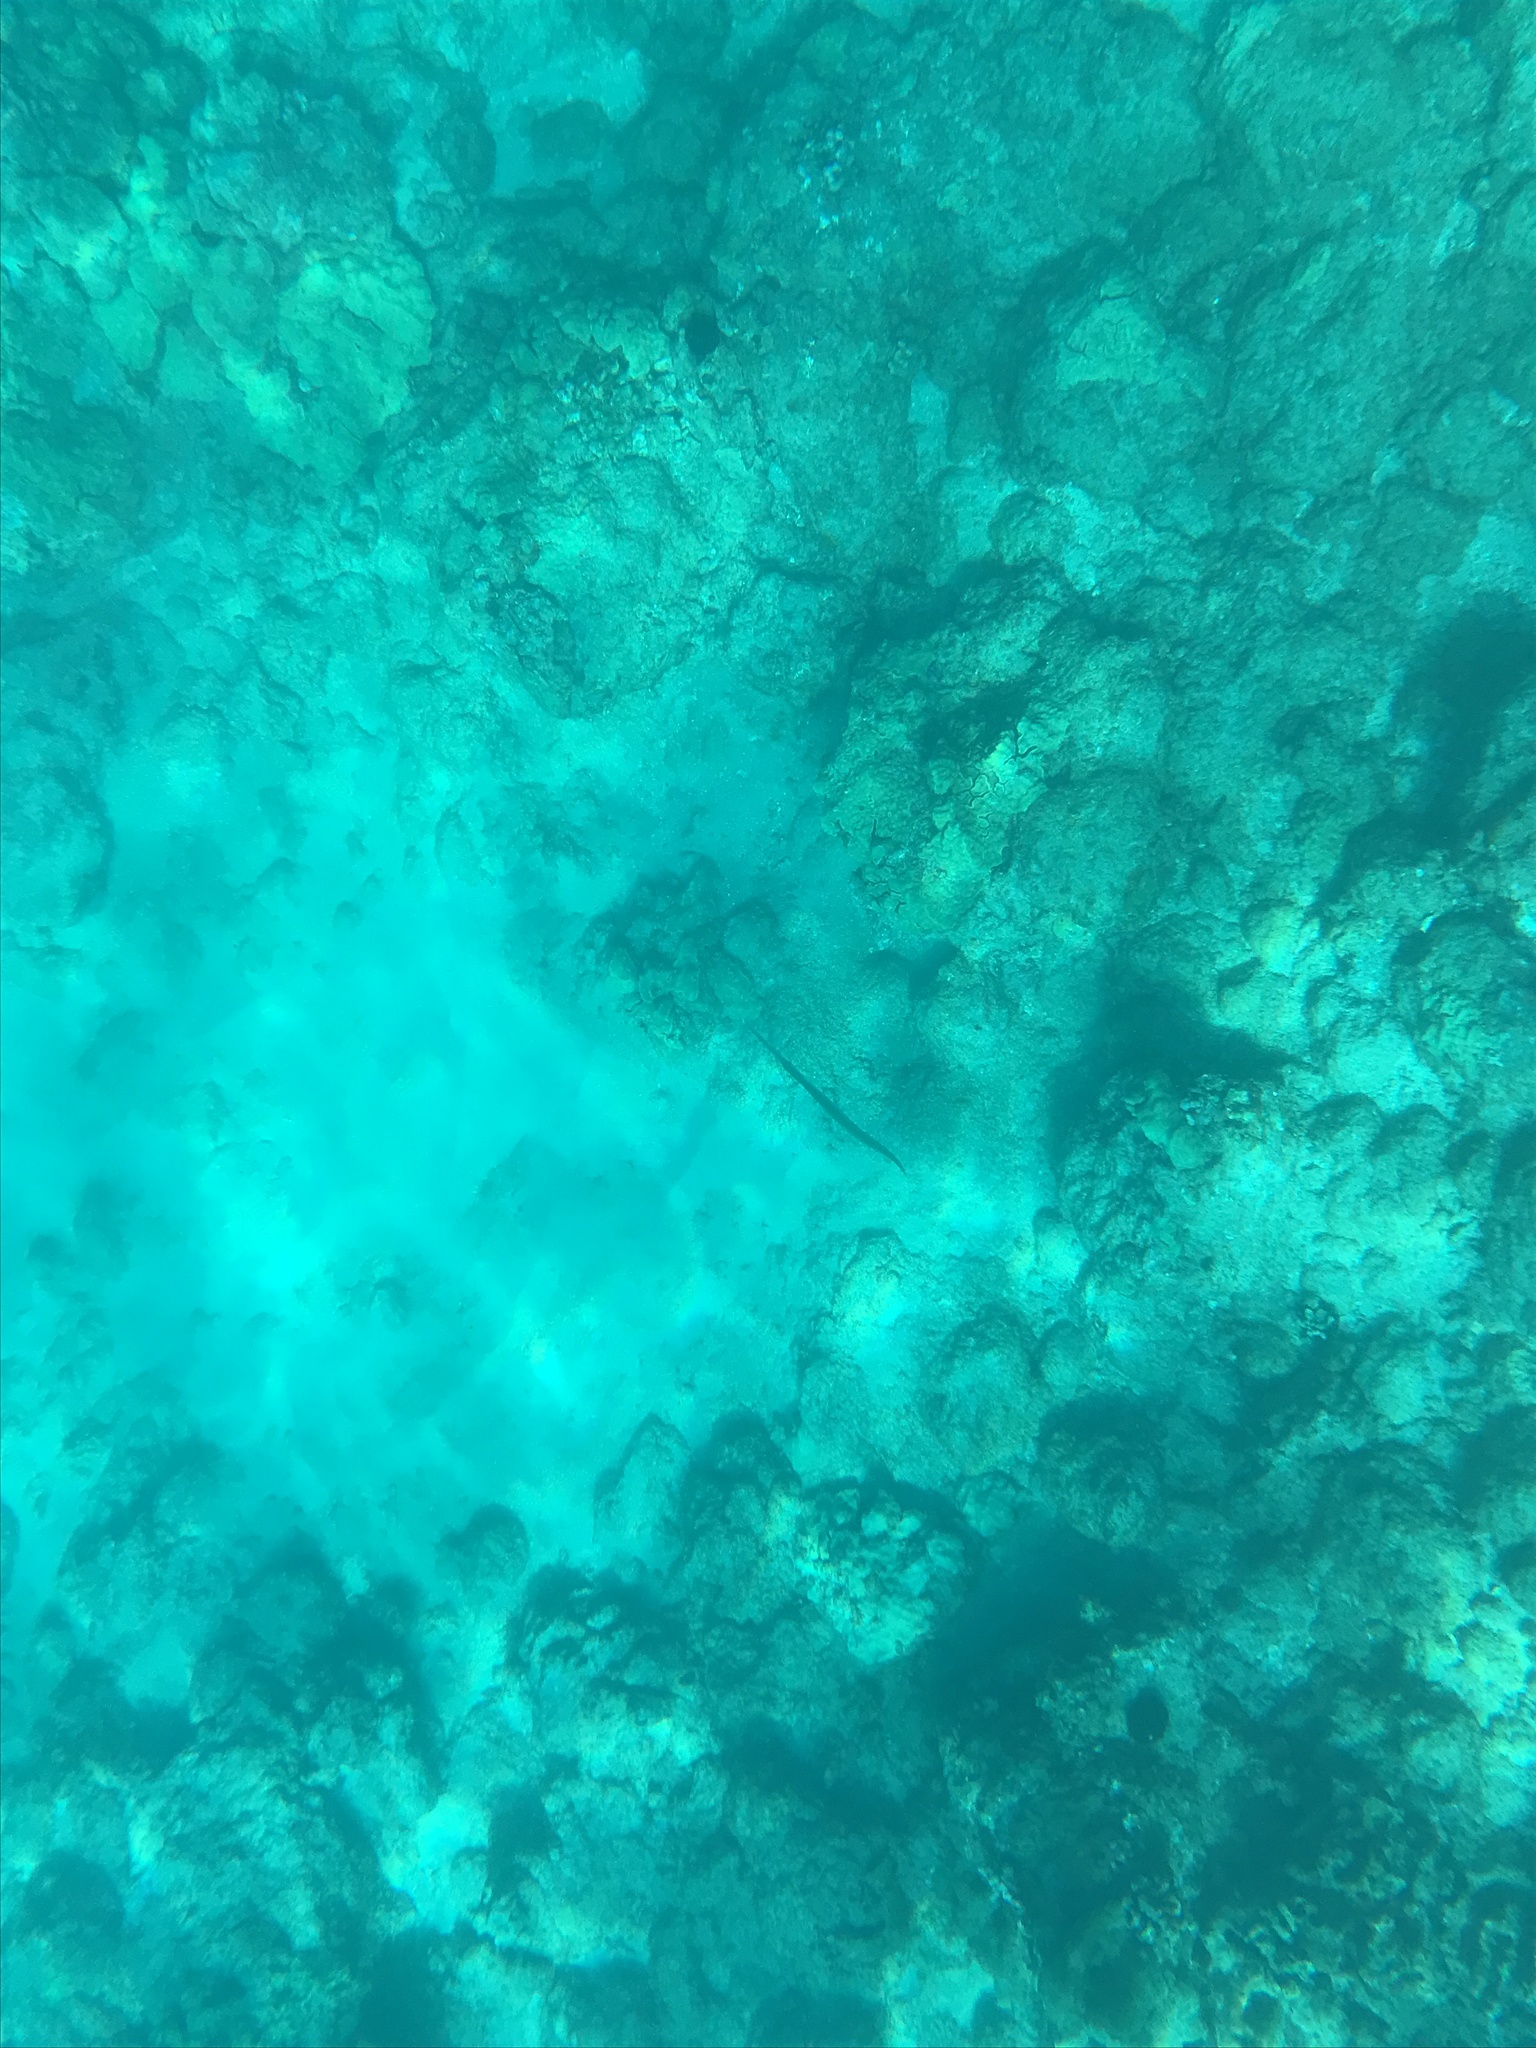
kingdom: Animalia
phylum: Chordata
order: Syngnathiformes
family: Aulostomidae
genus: Aulostomus
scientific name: Aulostomus chinensis
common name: Chinese trumpetfish
